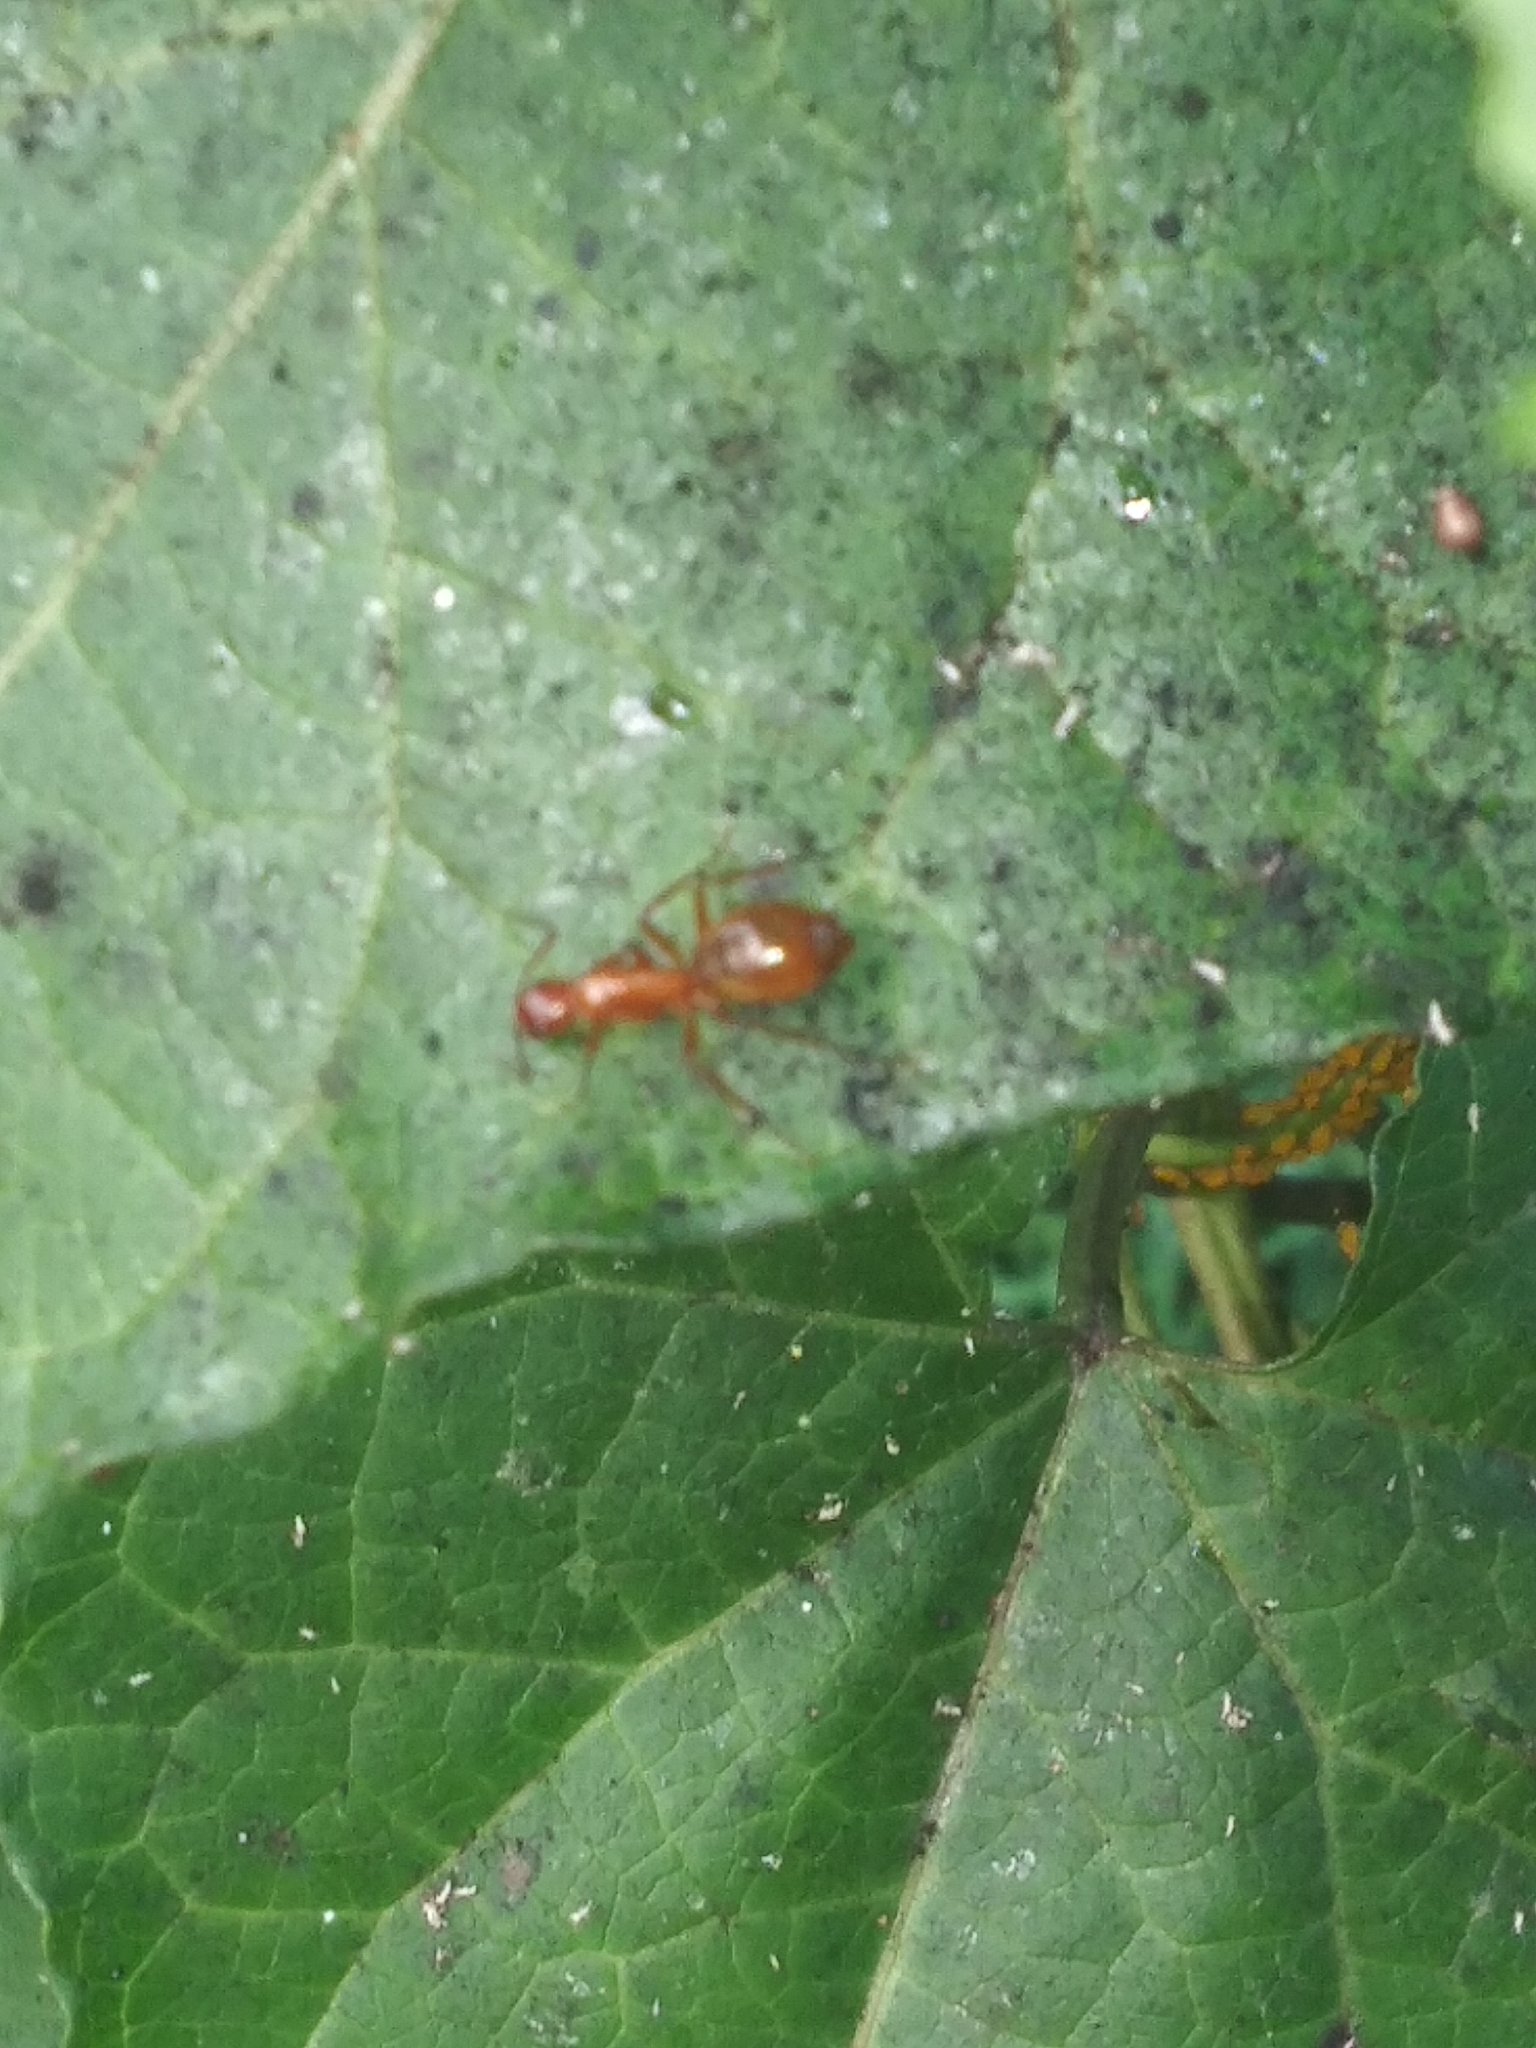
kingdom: Animalia
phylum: Arthropoda
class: Insecta
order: Hymenoptera
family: Formicidae
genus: Camponotus
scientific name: Camponotus castaneus
